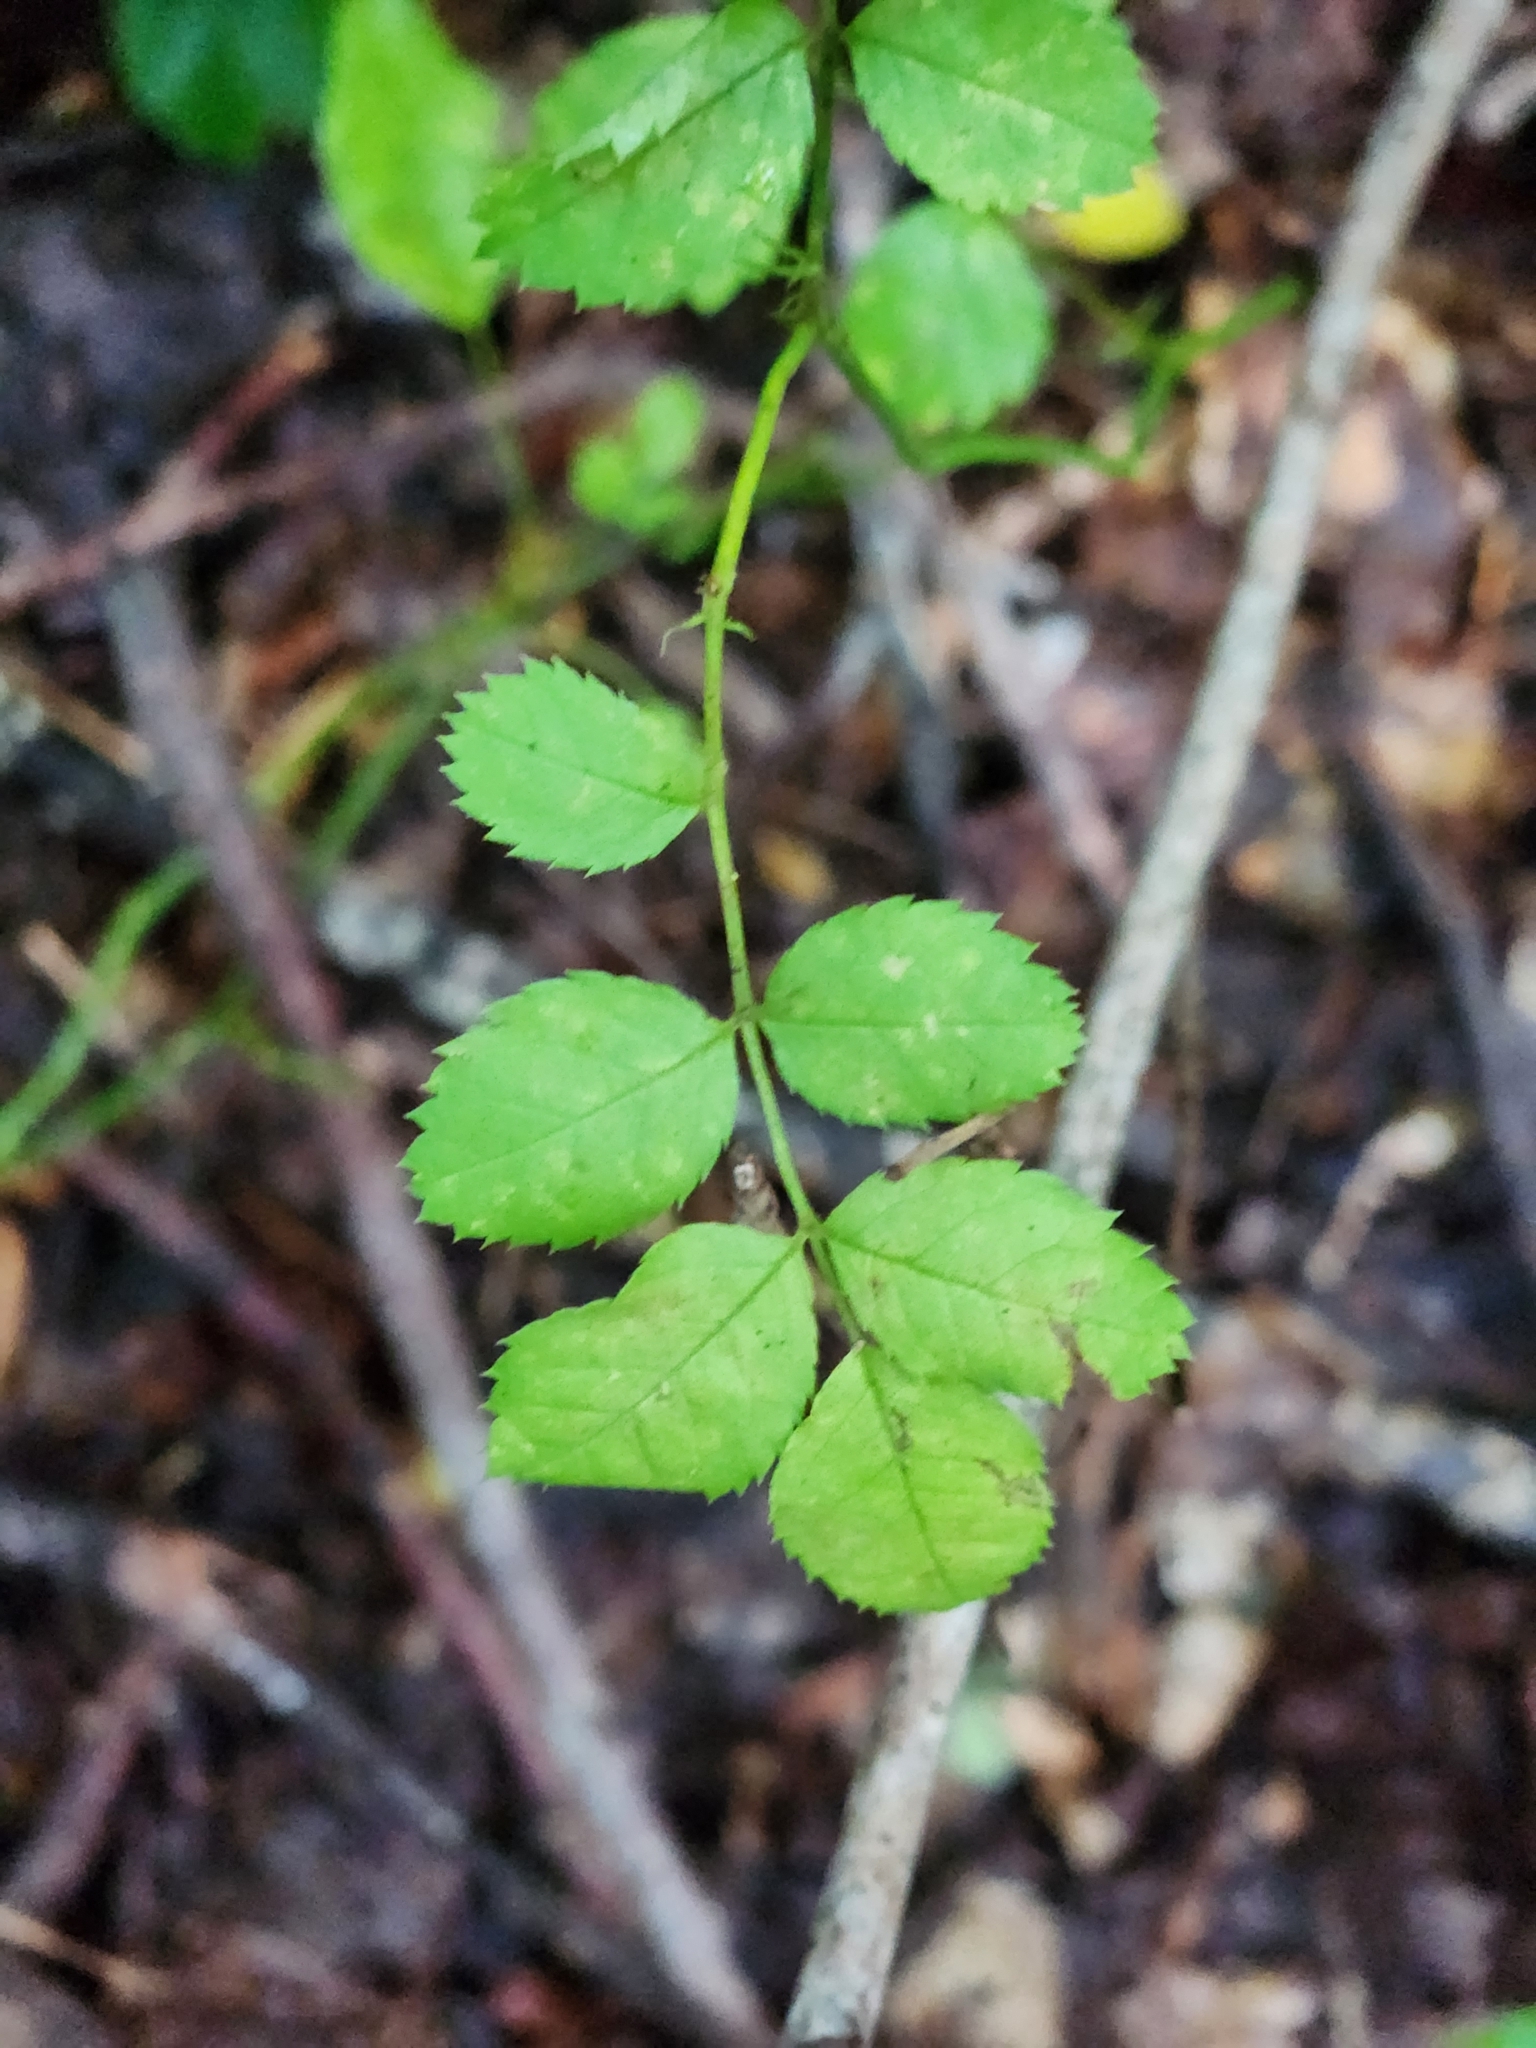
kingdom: Plantae
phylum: Tracheophyta
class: Magnoliopsida
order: Rosales
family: Rosaceae
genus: Rosa
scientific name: Rosa multiflora
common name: Multiflora rose
